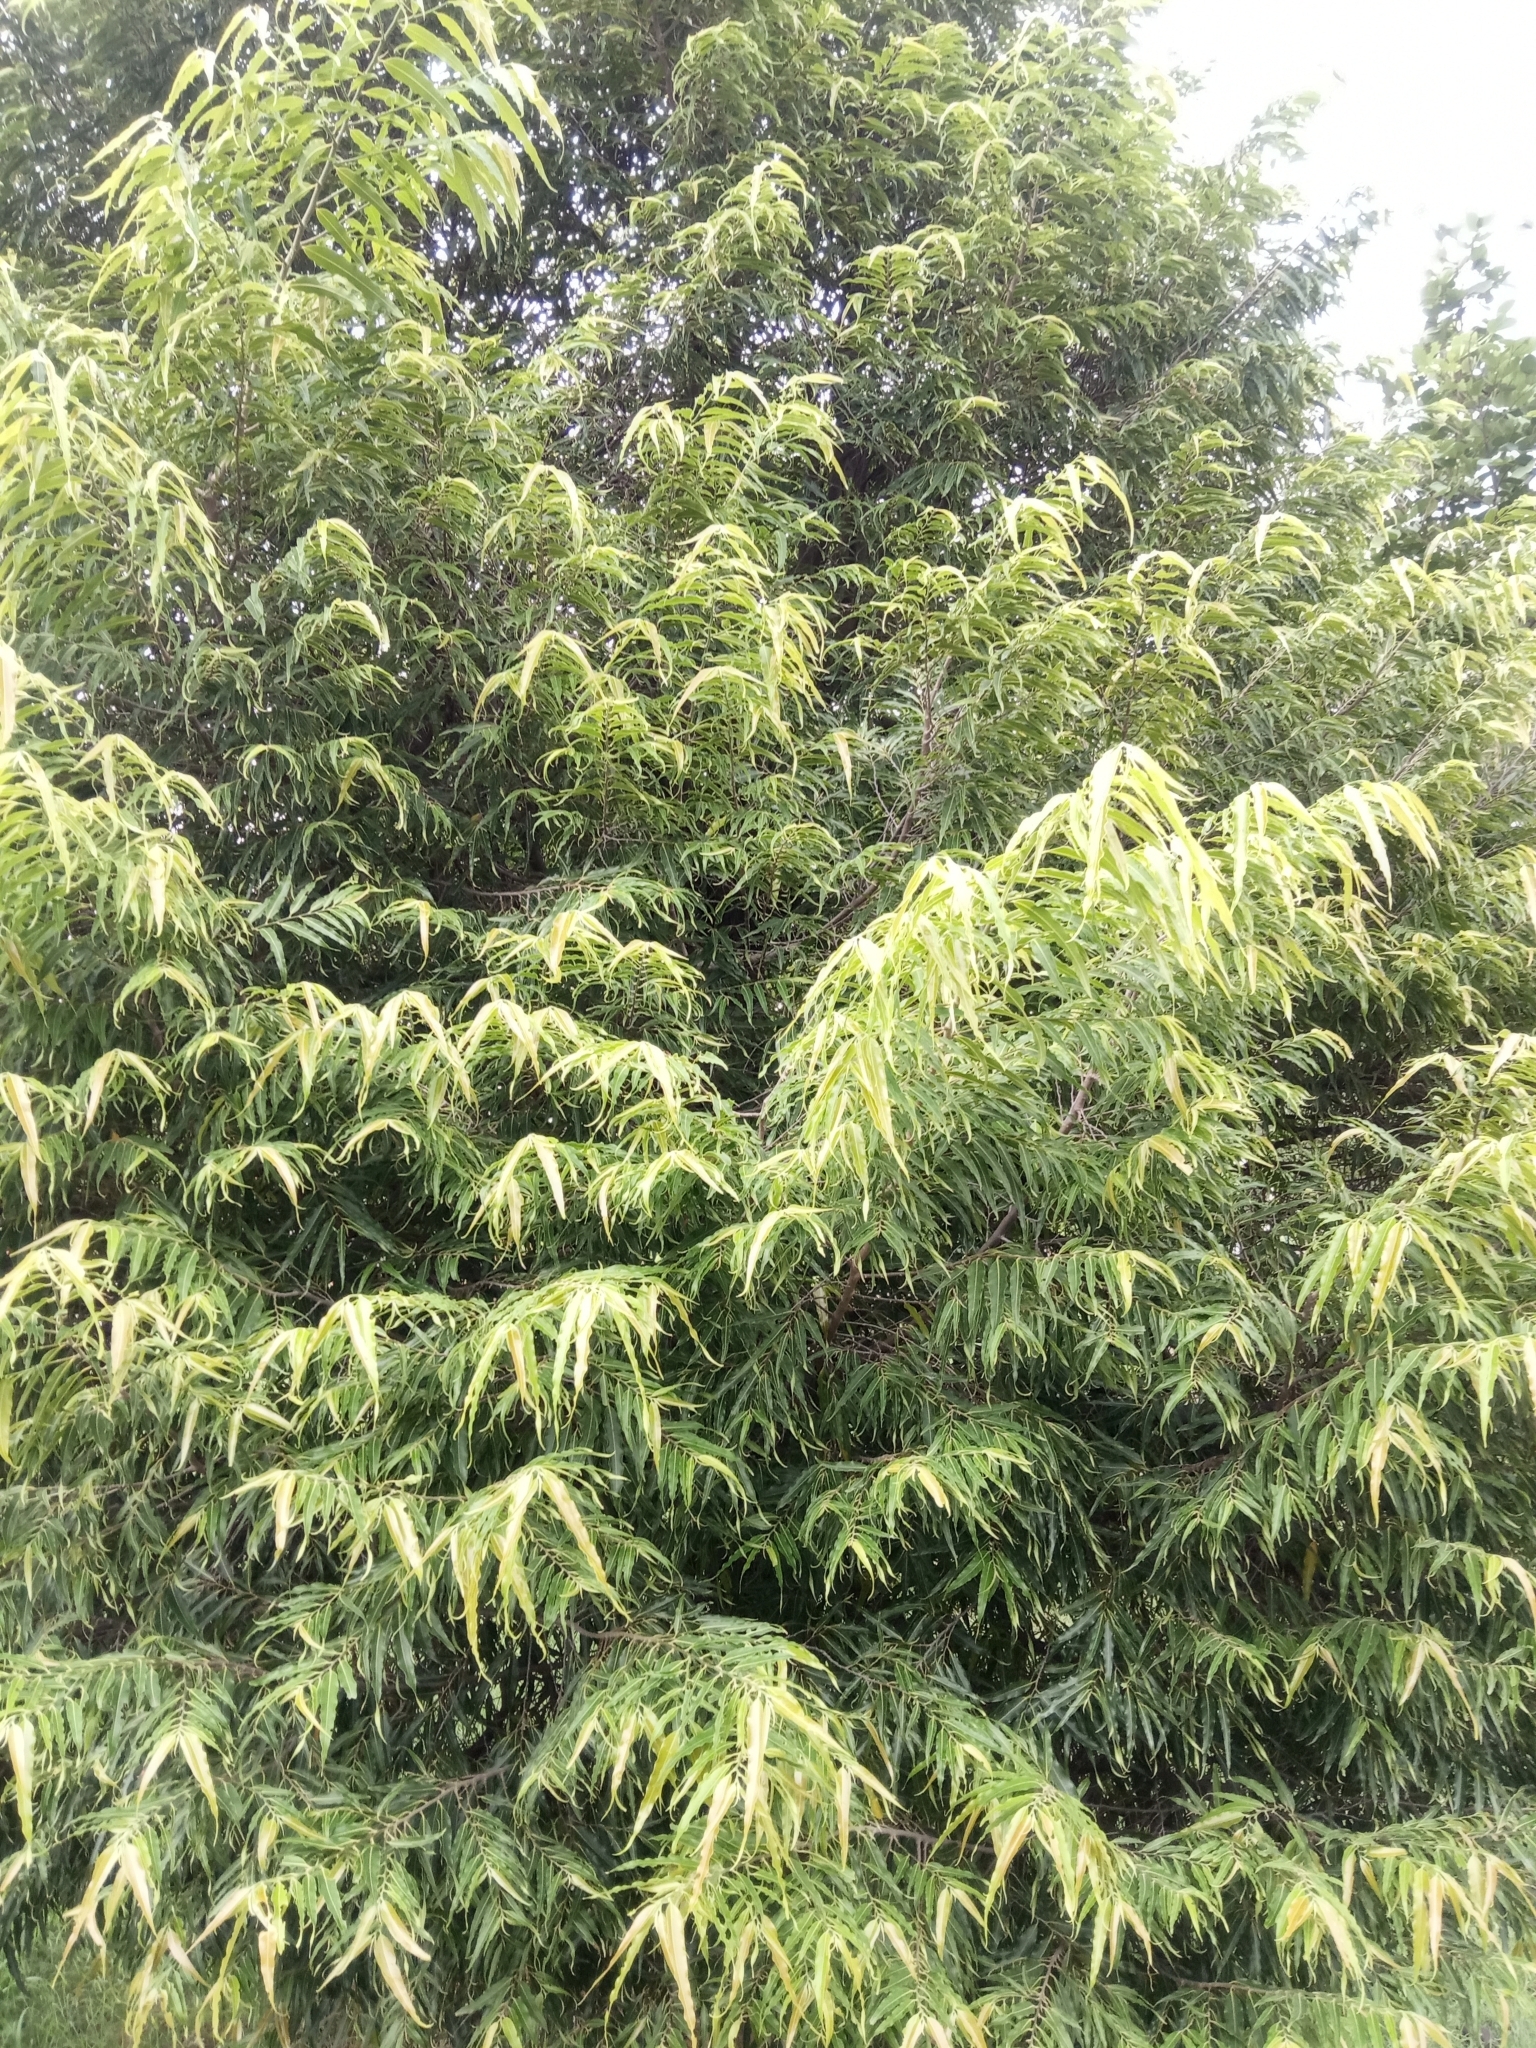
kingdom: Plantae
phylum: Tracheophyta
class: Magnoliopsida
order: Magnoliales
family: Annonaceae
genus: Polyalthia
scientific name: Polyalthia longifolia
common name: Cemetery-tree
